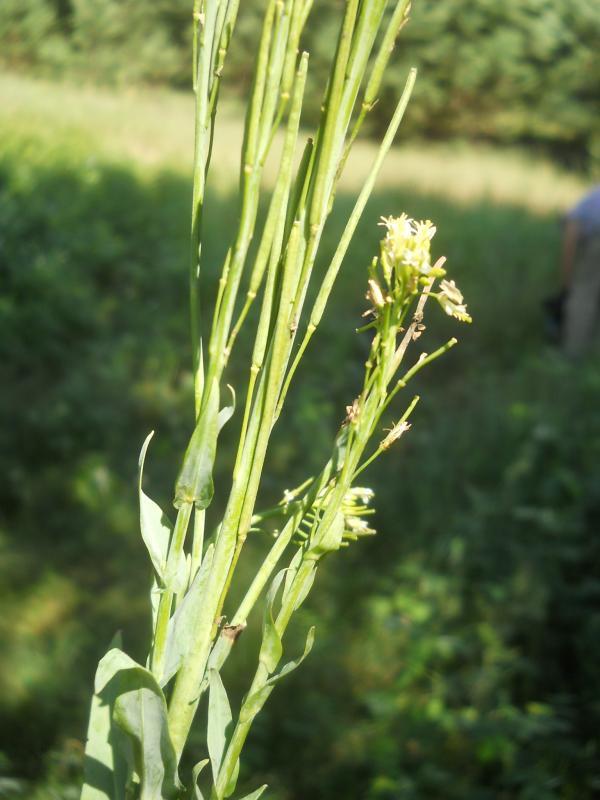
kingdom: Plantae
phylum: Tracheophyta
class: Magnoliopsida
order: Brassicales
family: Brassicaceae
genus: Turritis
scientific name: Turritis glabra
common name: Tower rockcress
